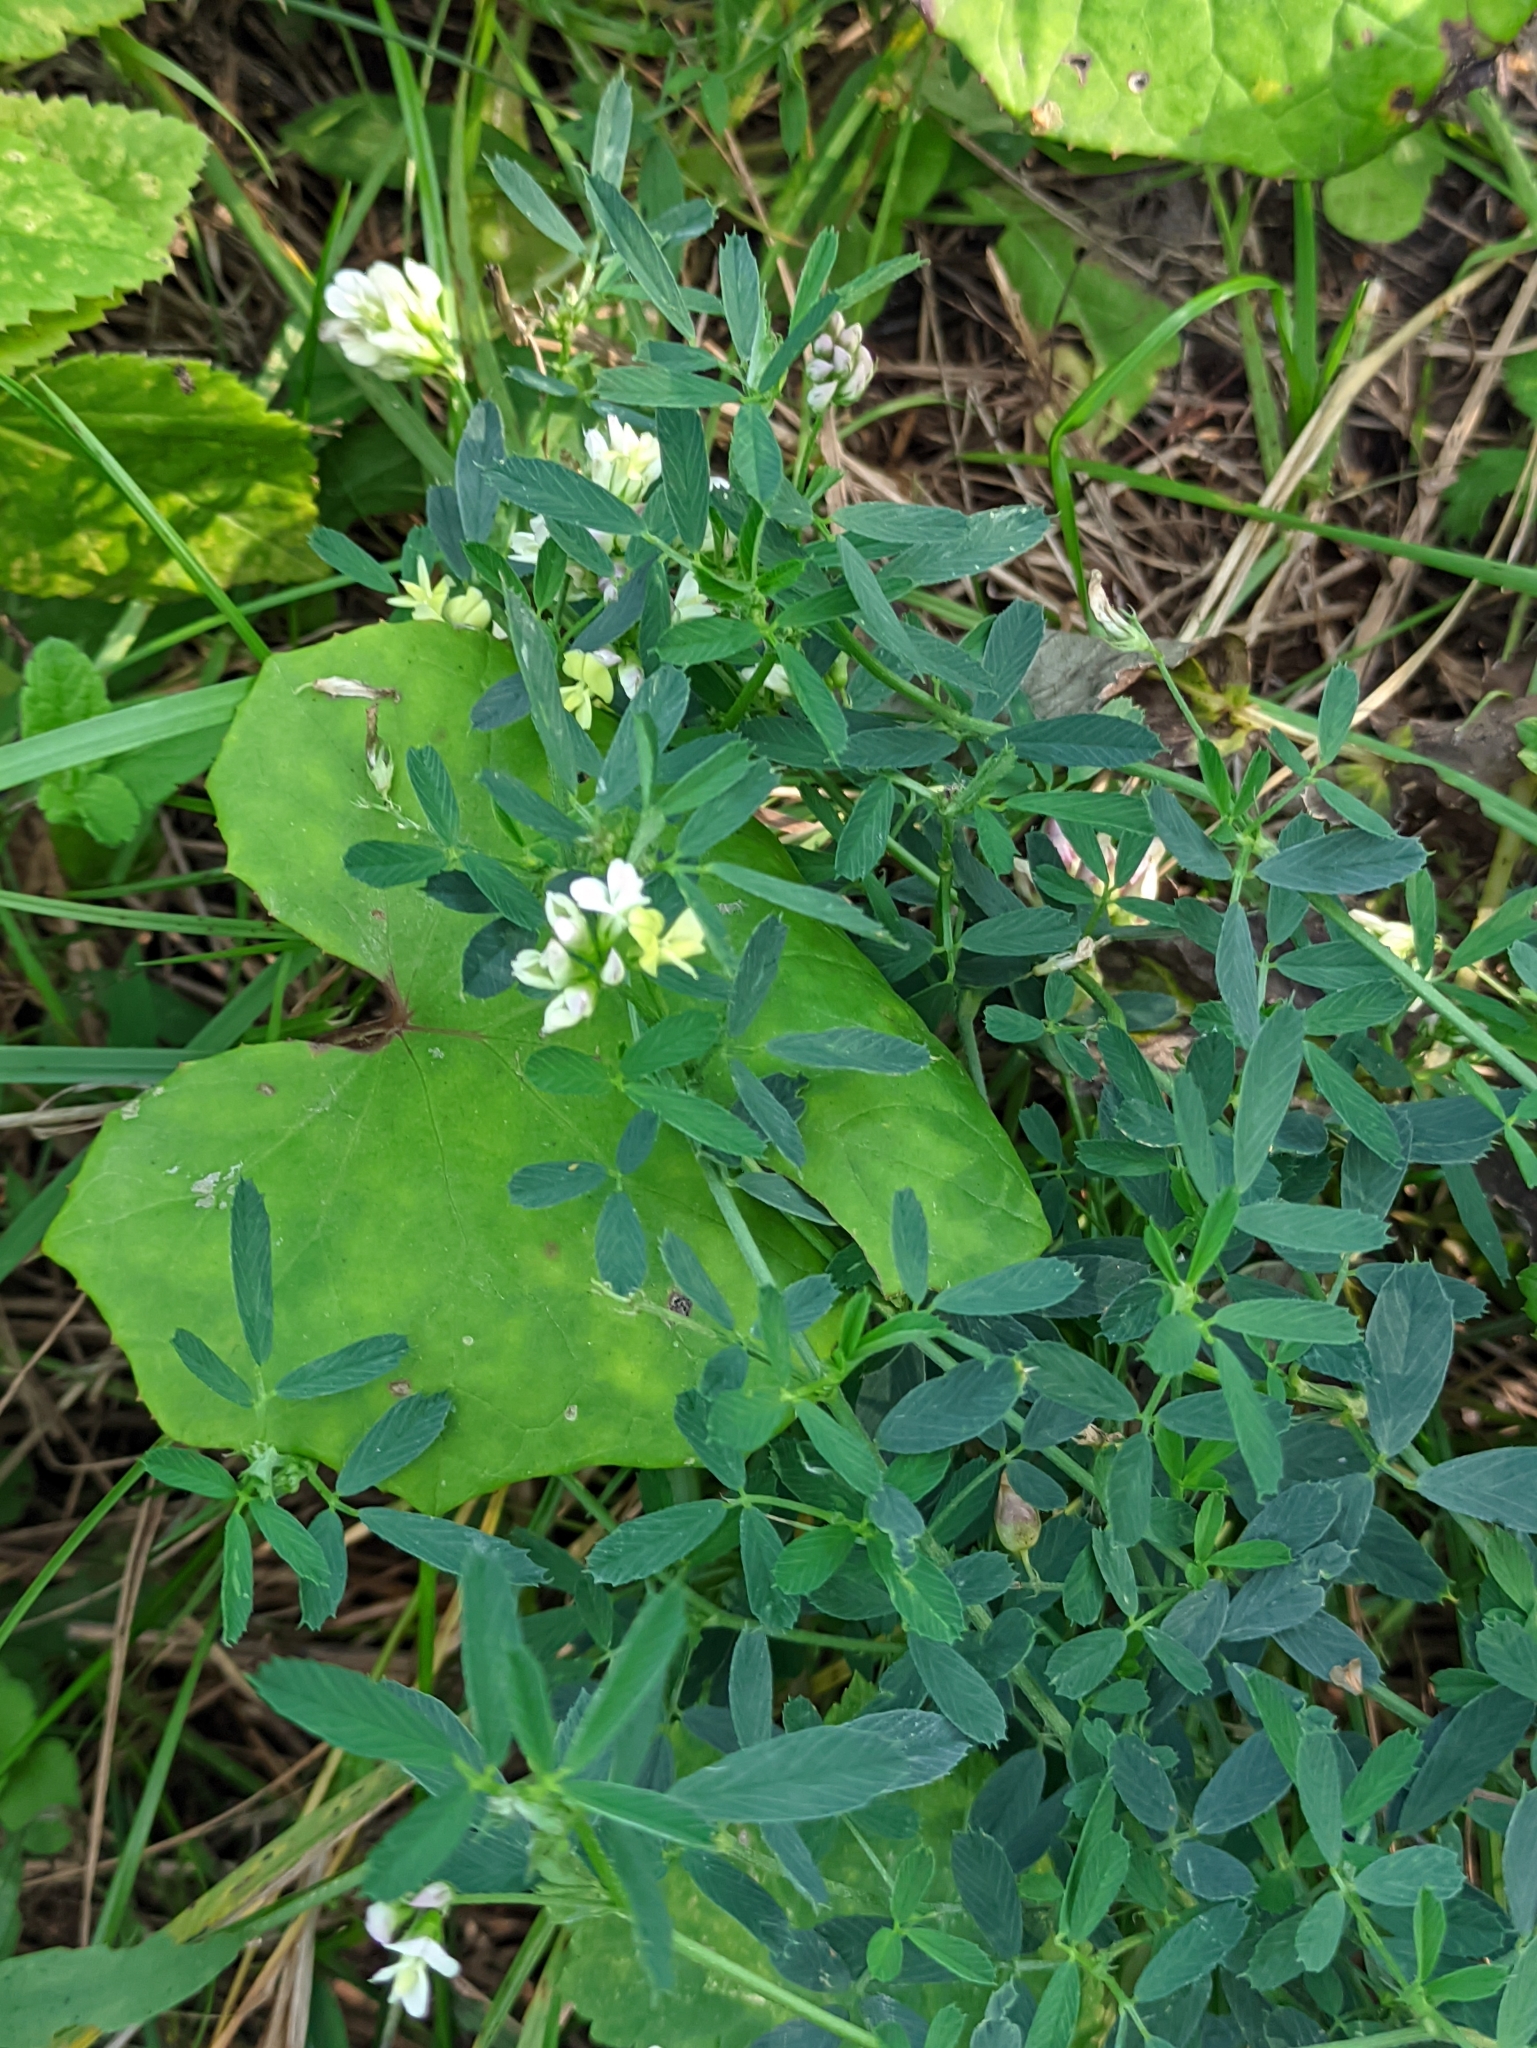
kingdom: Plantae
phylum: Tracheophyta
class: Magnoliopsida
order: Fabales
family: Fabaceae
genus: Medicago
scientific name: Medicago varia
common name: Sand lucerne
